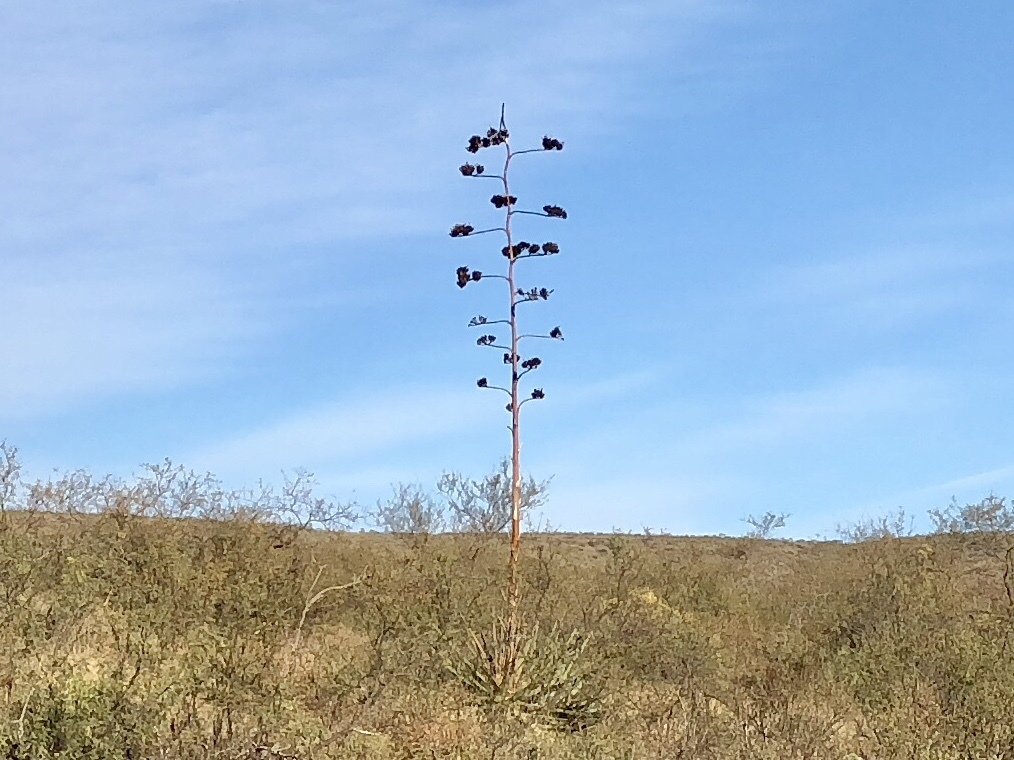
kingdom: Plantae
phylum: Tracheophyta
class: Liliopsida
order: Asparagales
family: Asparagaceae
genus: Agave
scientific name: Agave palmeri
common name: Palmer agave
